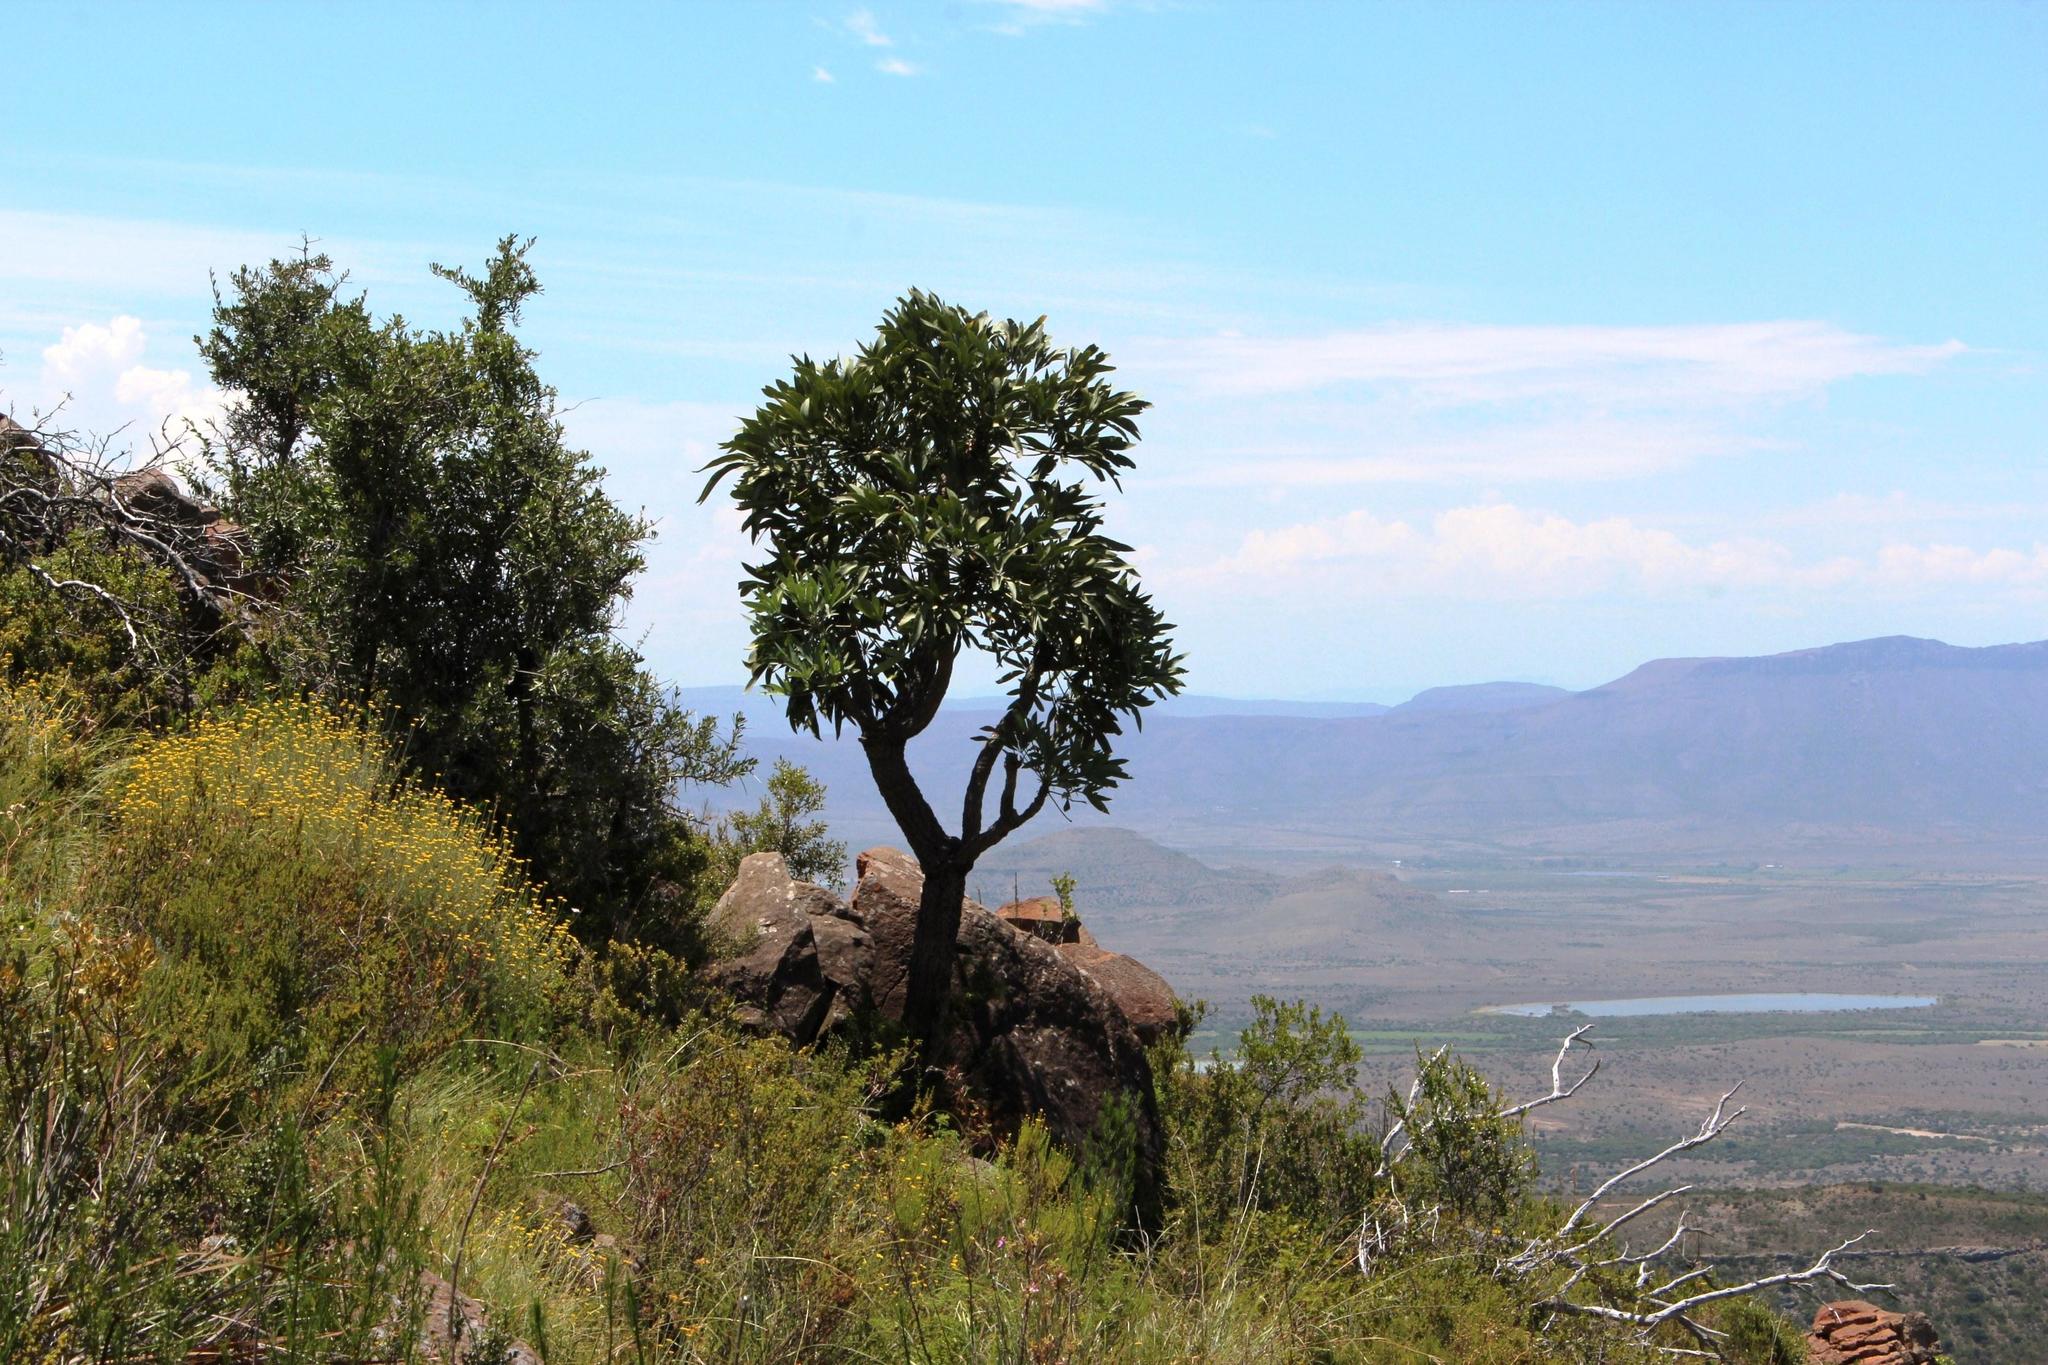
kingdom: Plantae
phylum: Tracheophyta
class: Magnoliopsida
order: Apiales
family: Araliaceae
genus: Cussonia
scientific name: Cussonia paniculata
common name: Cabbagetree
